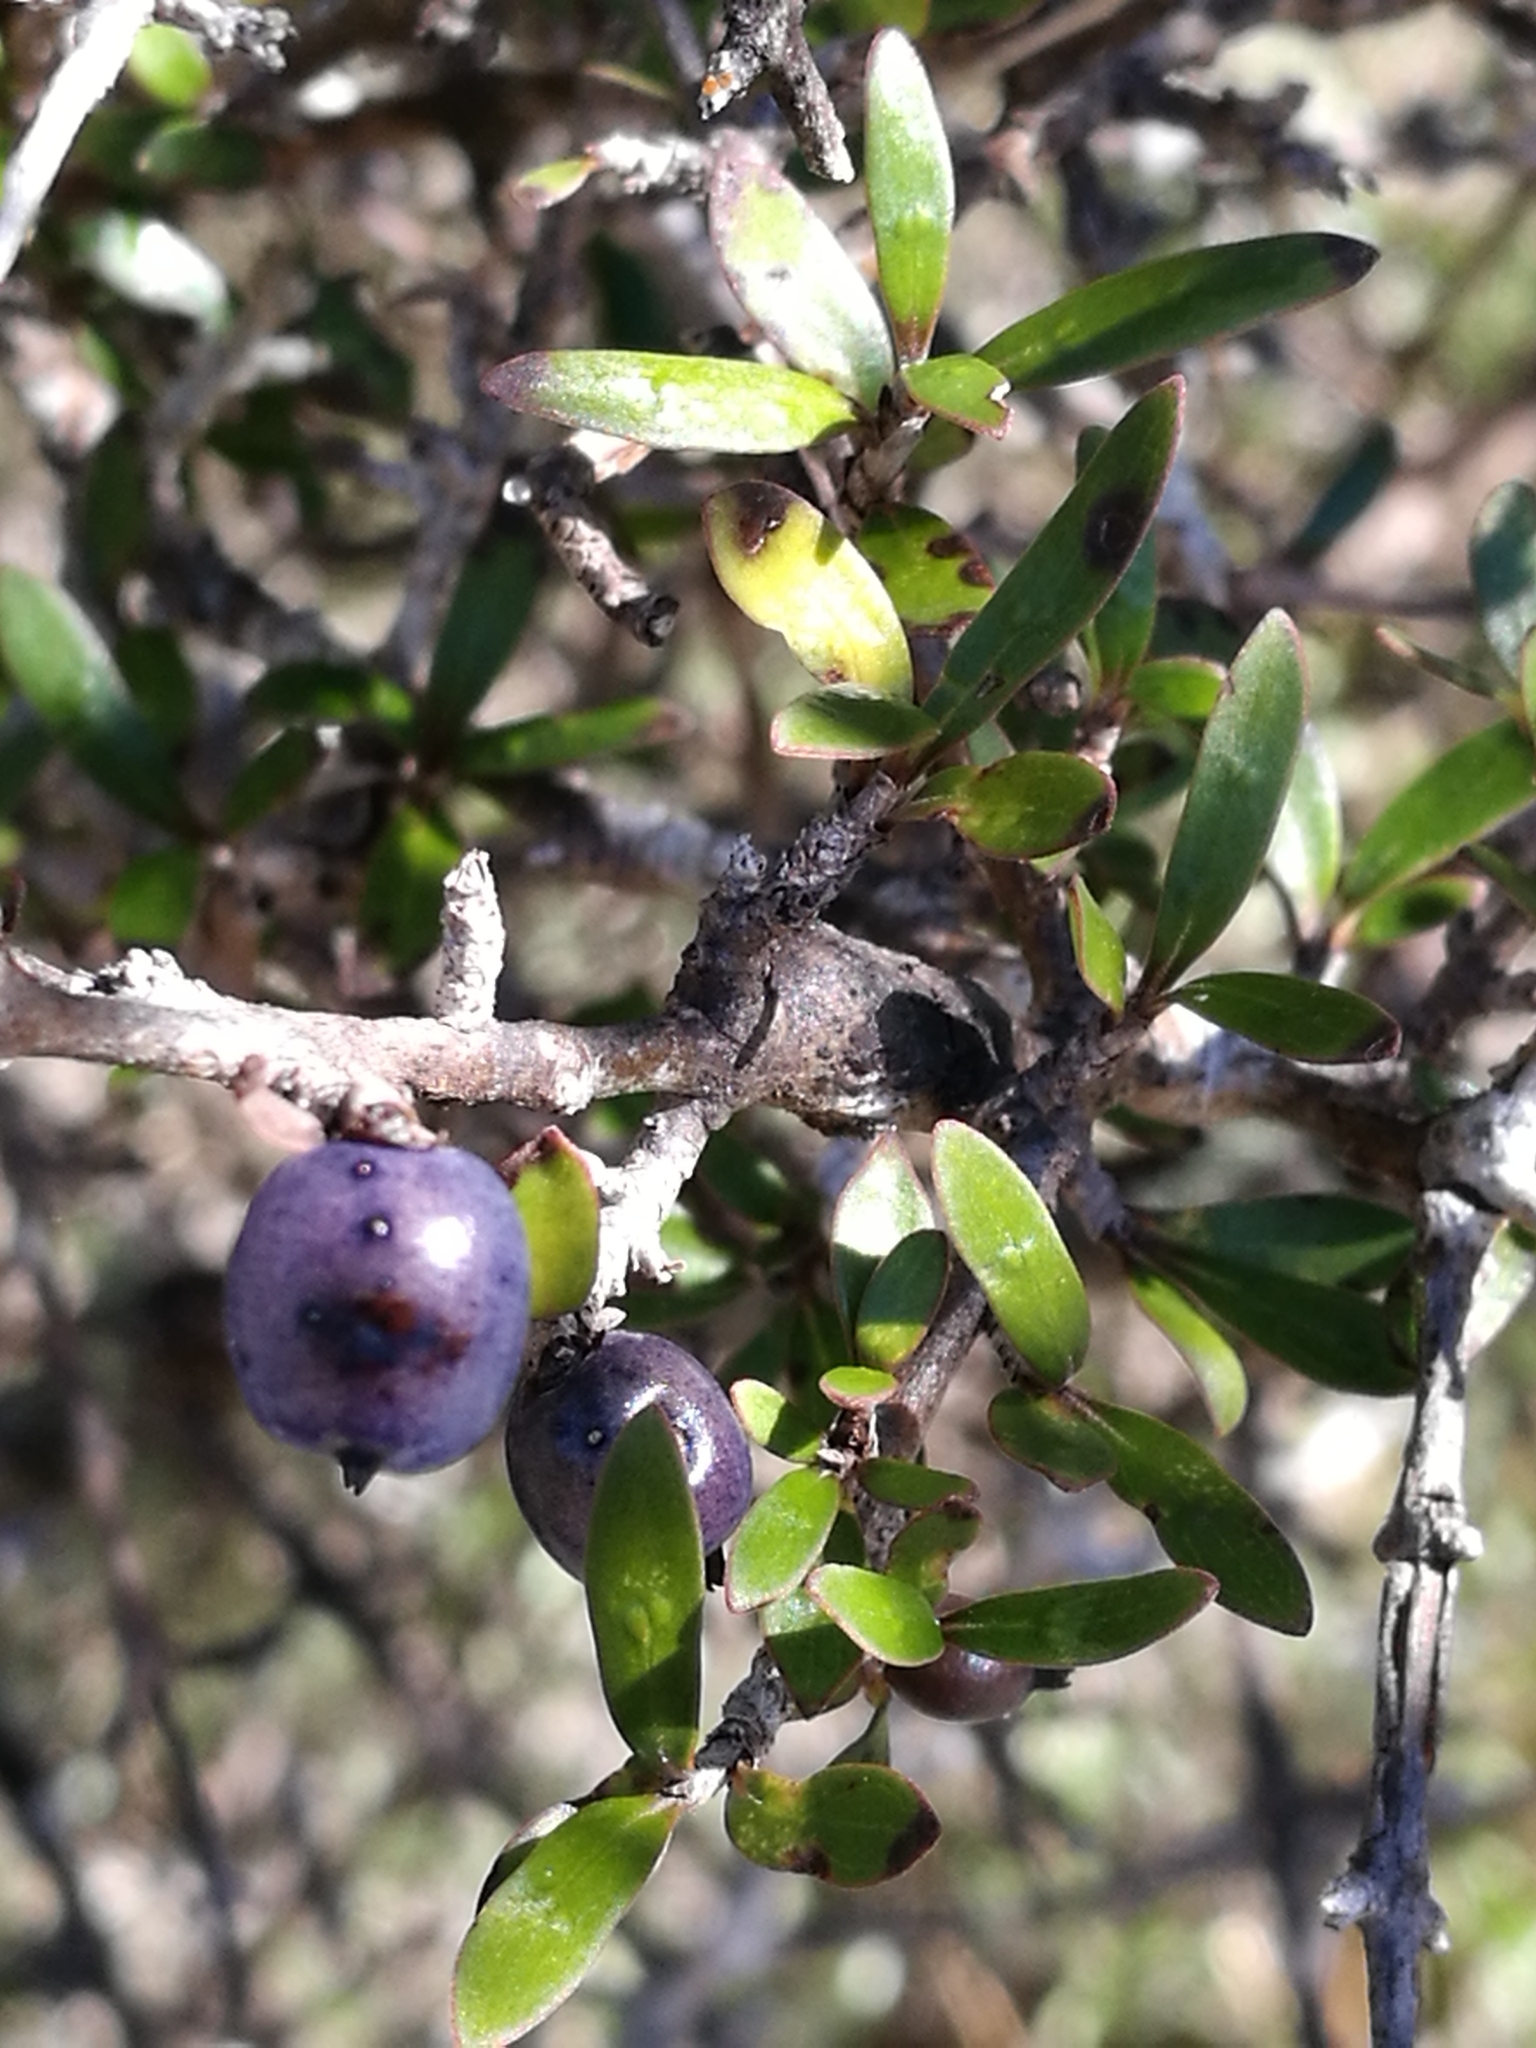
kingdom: Plantae
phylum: Tracheophyta
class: Magnoliopsida
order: Gentianales
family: Rubiaceae
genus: Coprosma
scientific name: Coprosma propinqua
